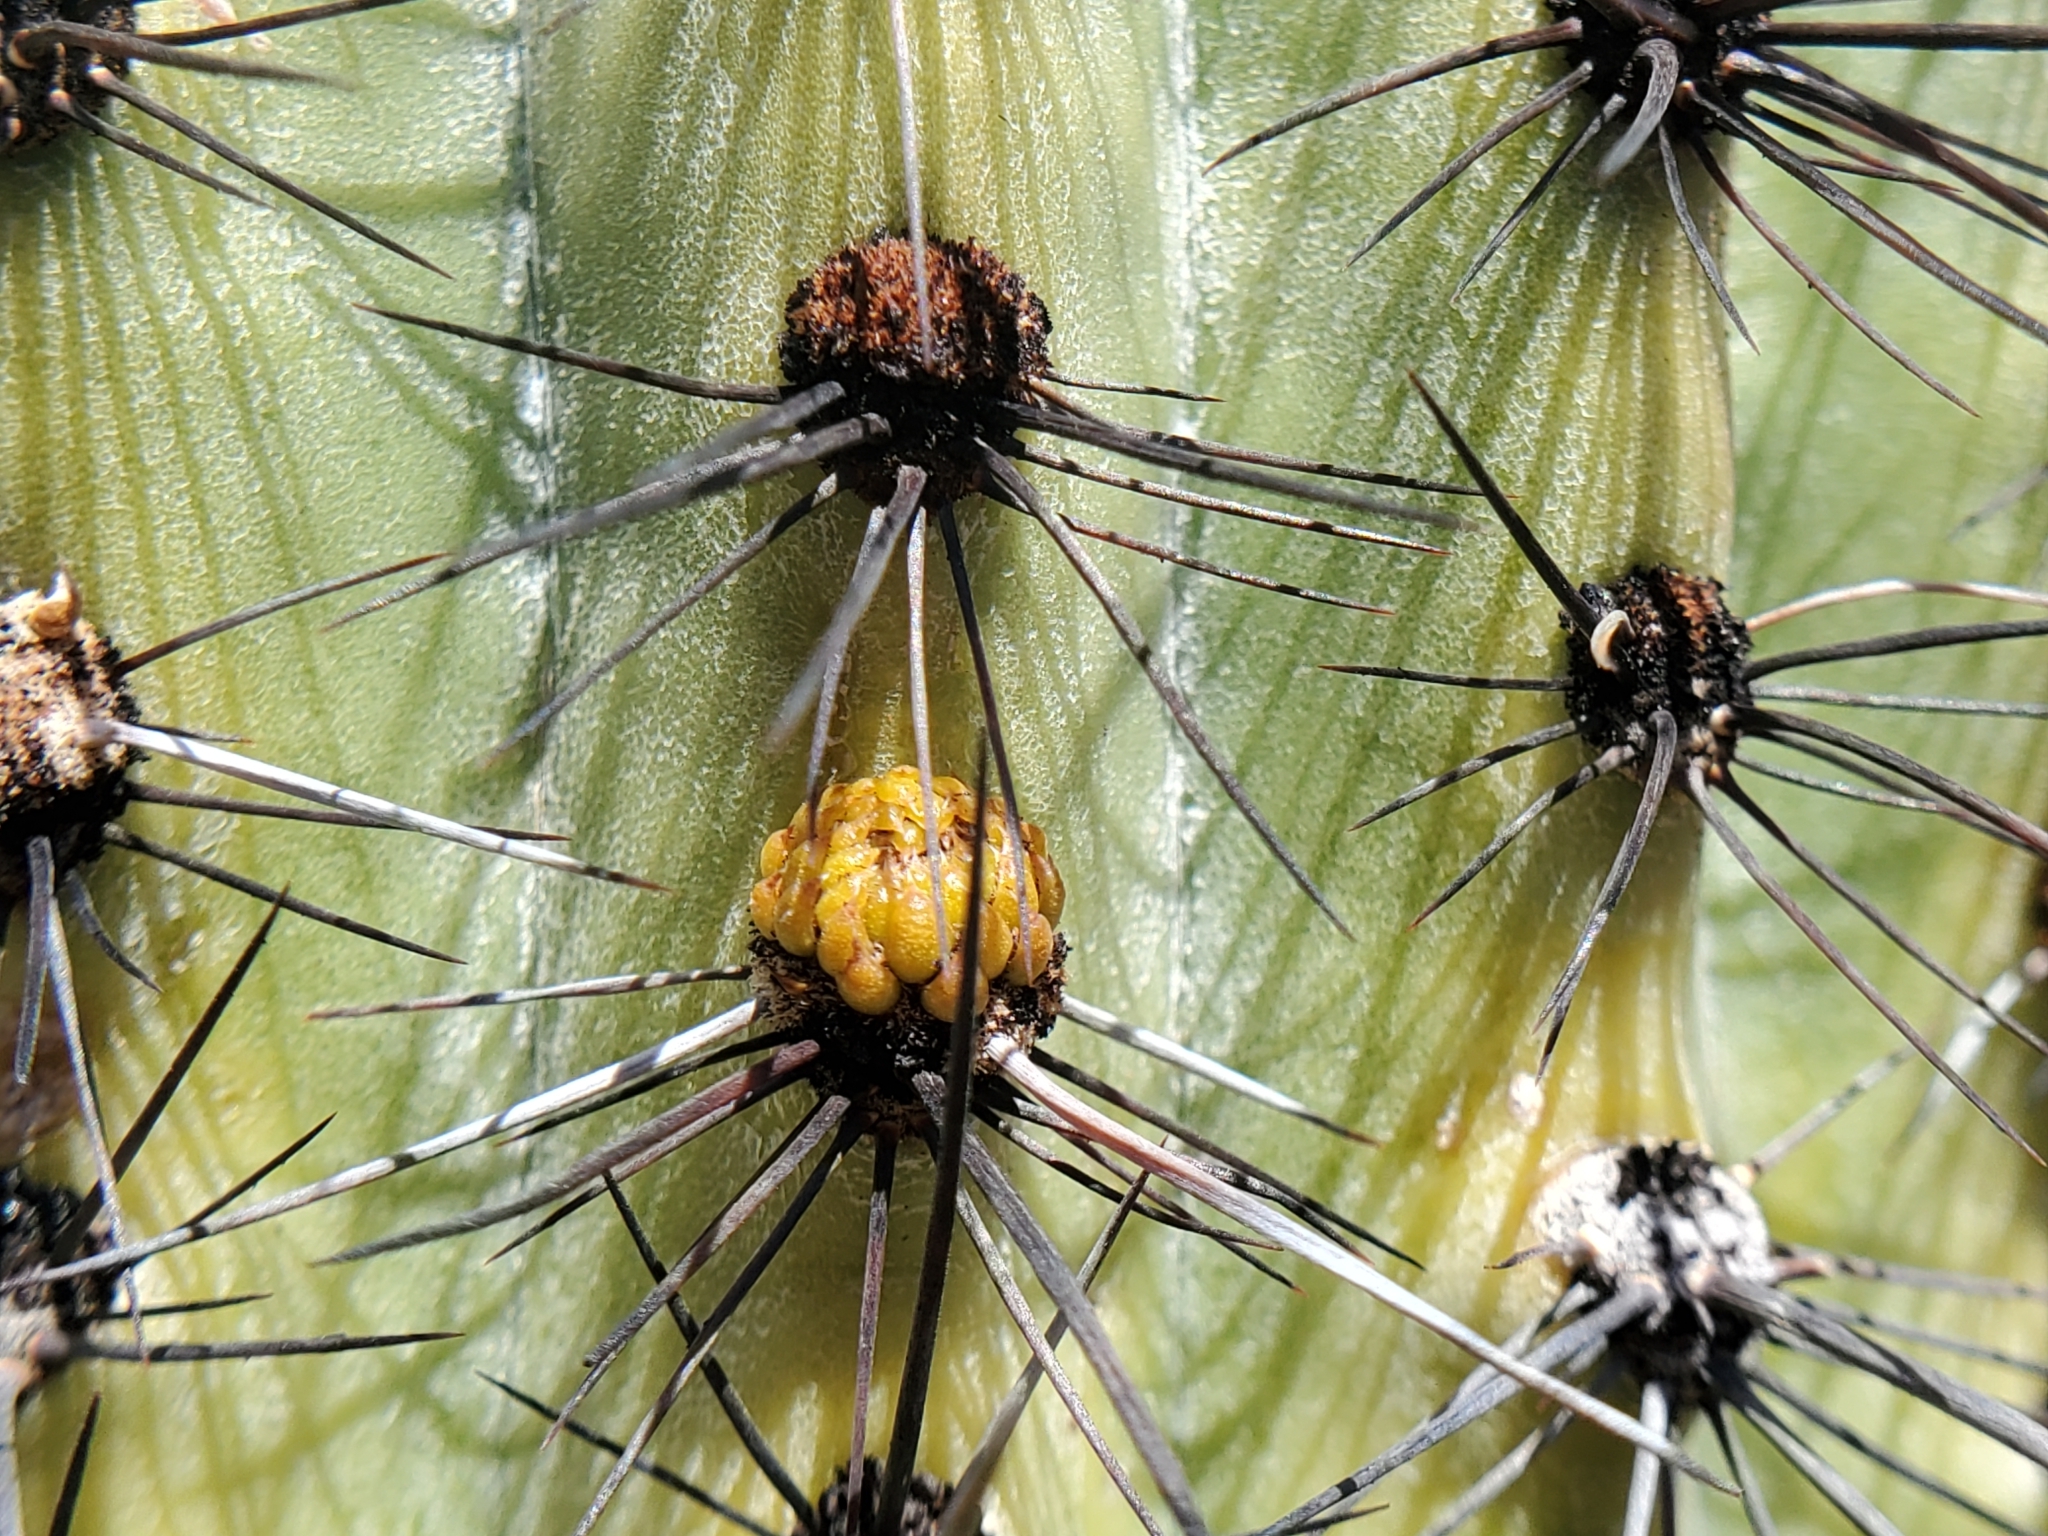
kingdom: Plantae
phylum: Tracheophyta
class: Magnoliopsida
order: Caryophyllales
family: Cactaceae
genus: Stenocereus
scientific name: Stenocereus thurberi
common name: Organ pipe cactus
